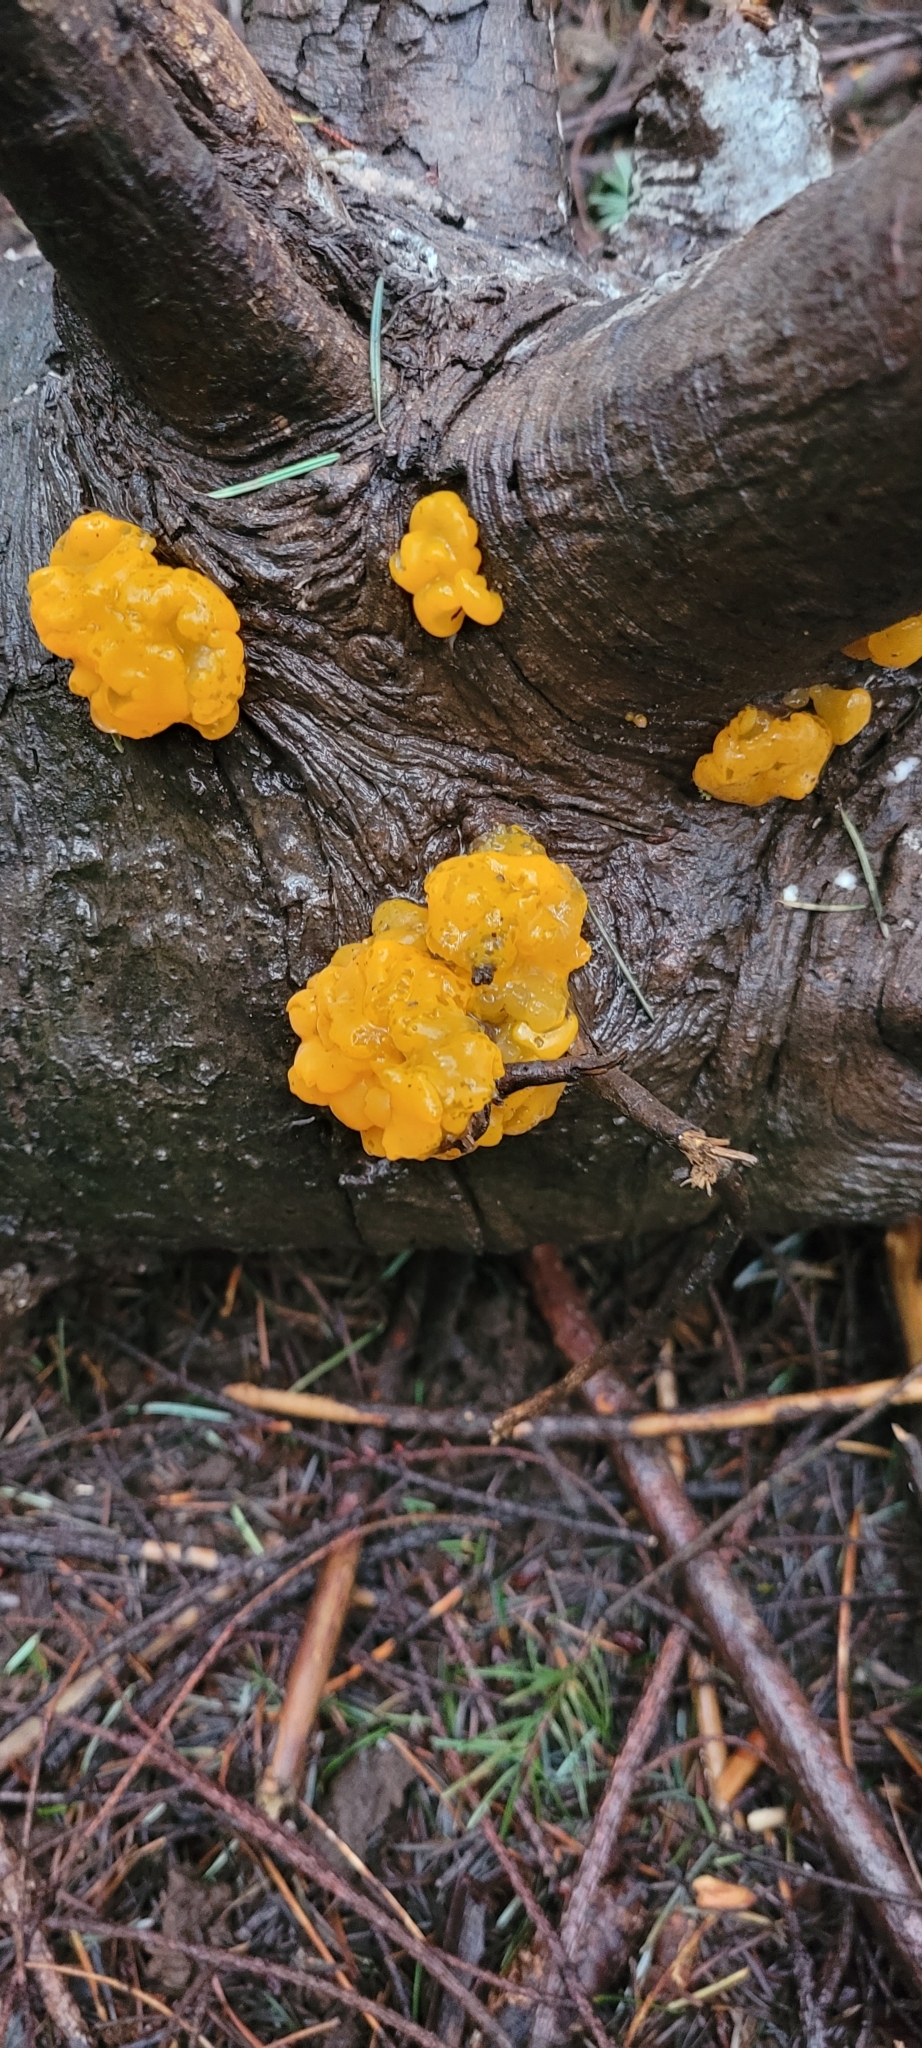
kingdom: Fungi
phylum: Basidiomycota
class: Dacrymycetes
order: Dacrymycetales
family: Dacrymycetaceae
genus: Dacrymyces
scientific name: Dacrymyces chrysospermus
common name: Orange jelly spot
